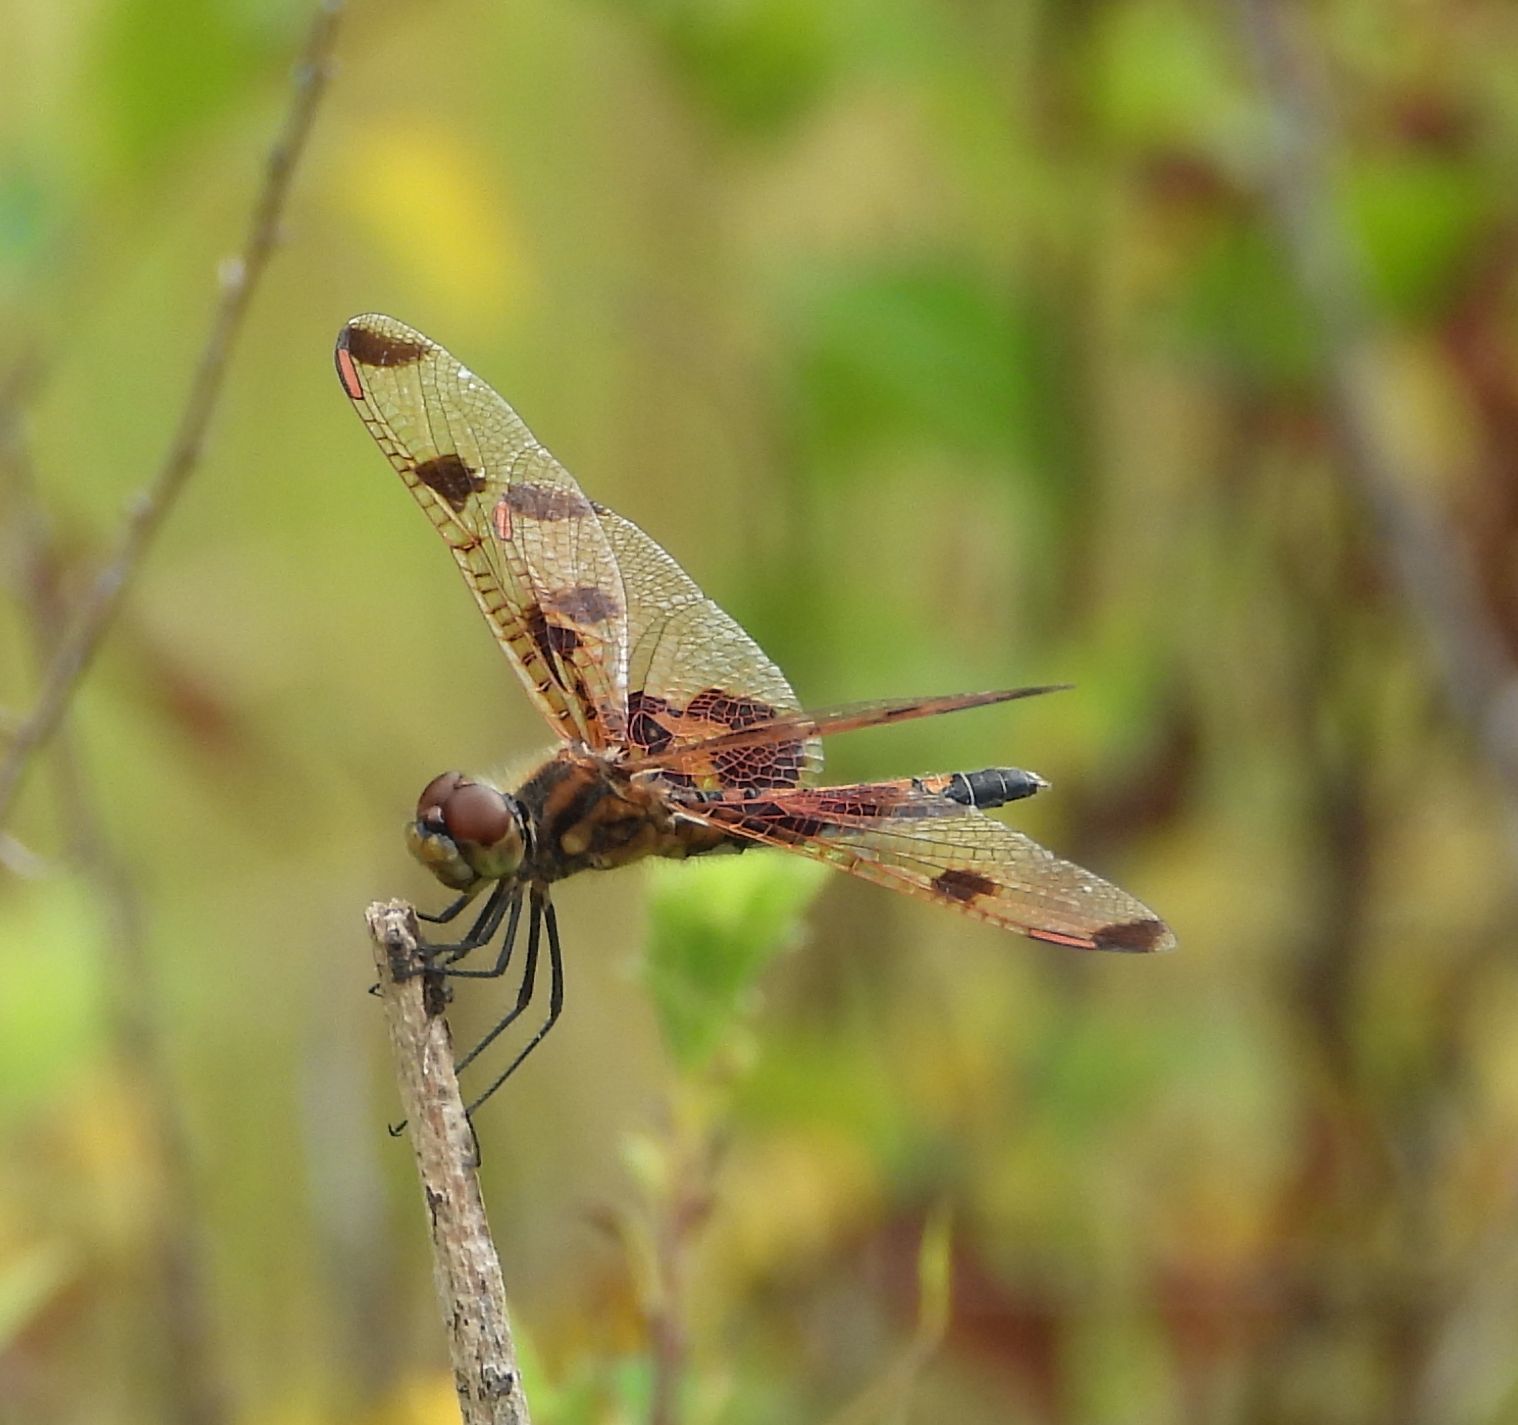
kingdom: Animalia
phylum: Arthropoda
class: Insecta
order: Odonata
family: Libellulidae
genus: Celithemis
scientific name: Celithemis elisa
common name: Calico pennant
